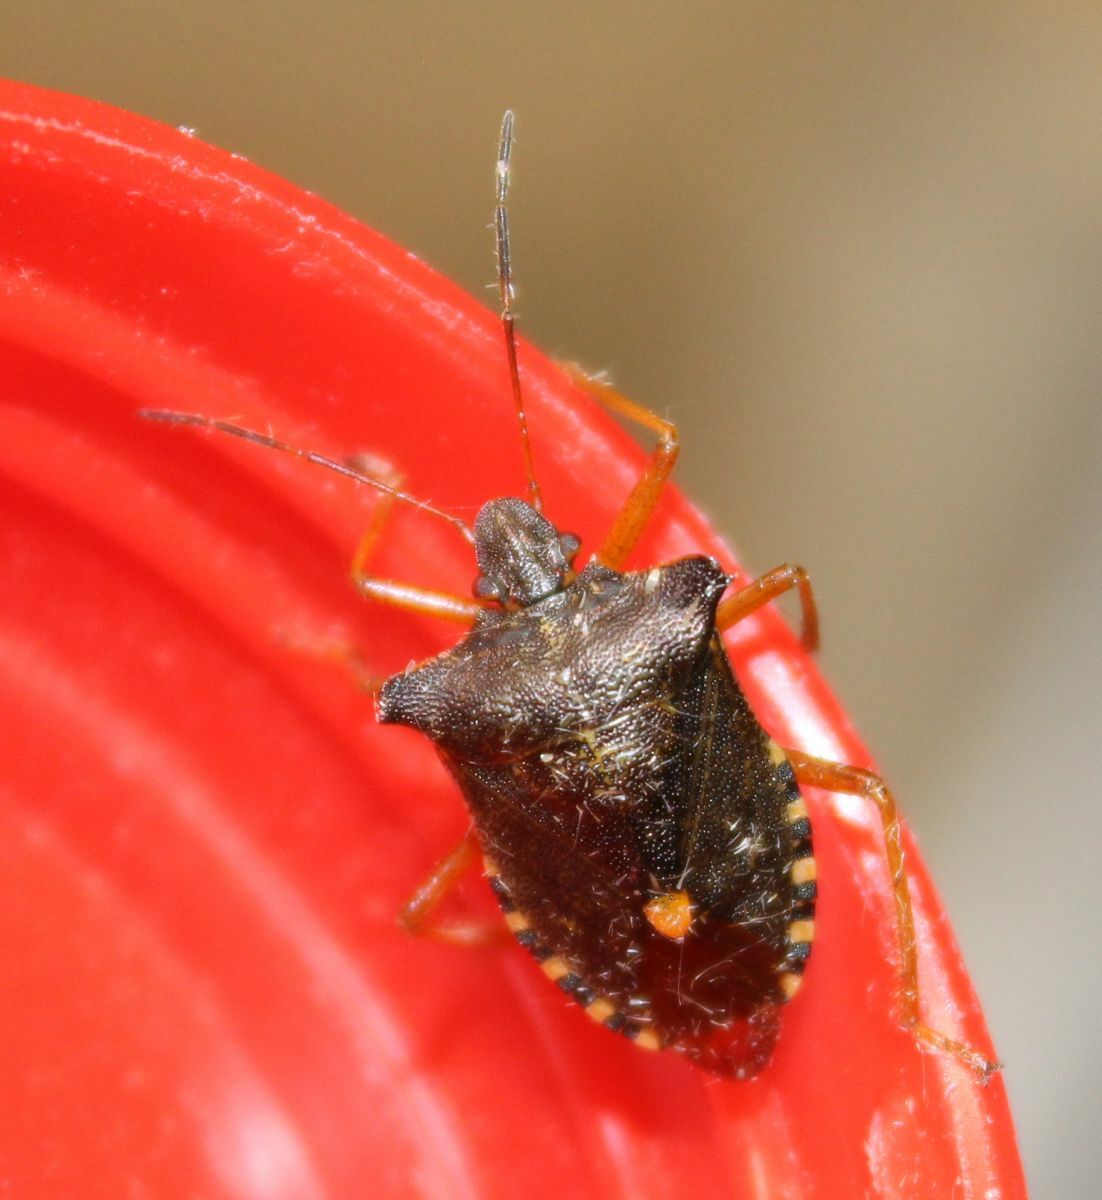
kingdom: Animalia
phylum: Arthropoda
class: Insecta
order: Hemiptera
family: Pentatomidae
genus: Pentatoma
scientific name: Pentatoma rufipes
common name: Forest bug
